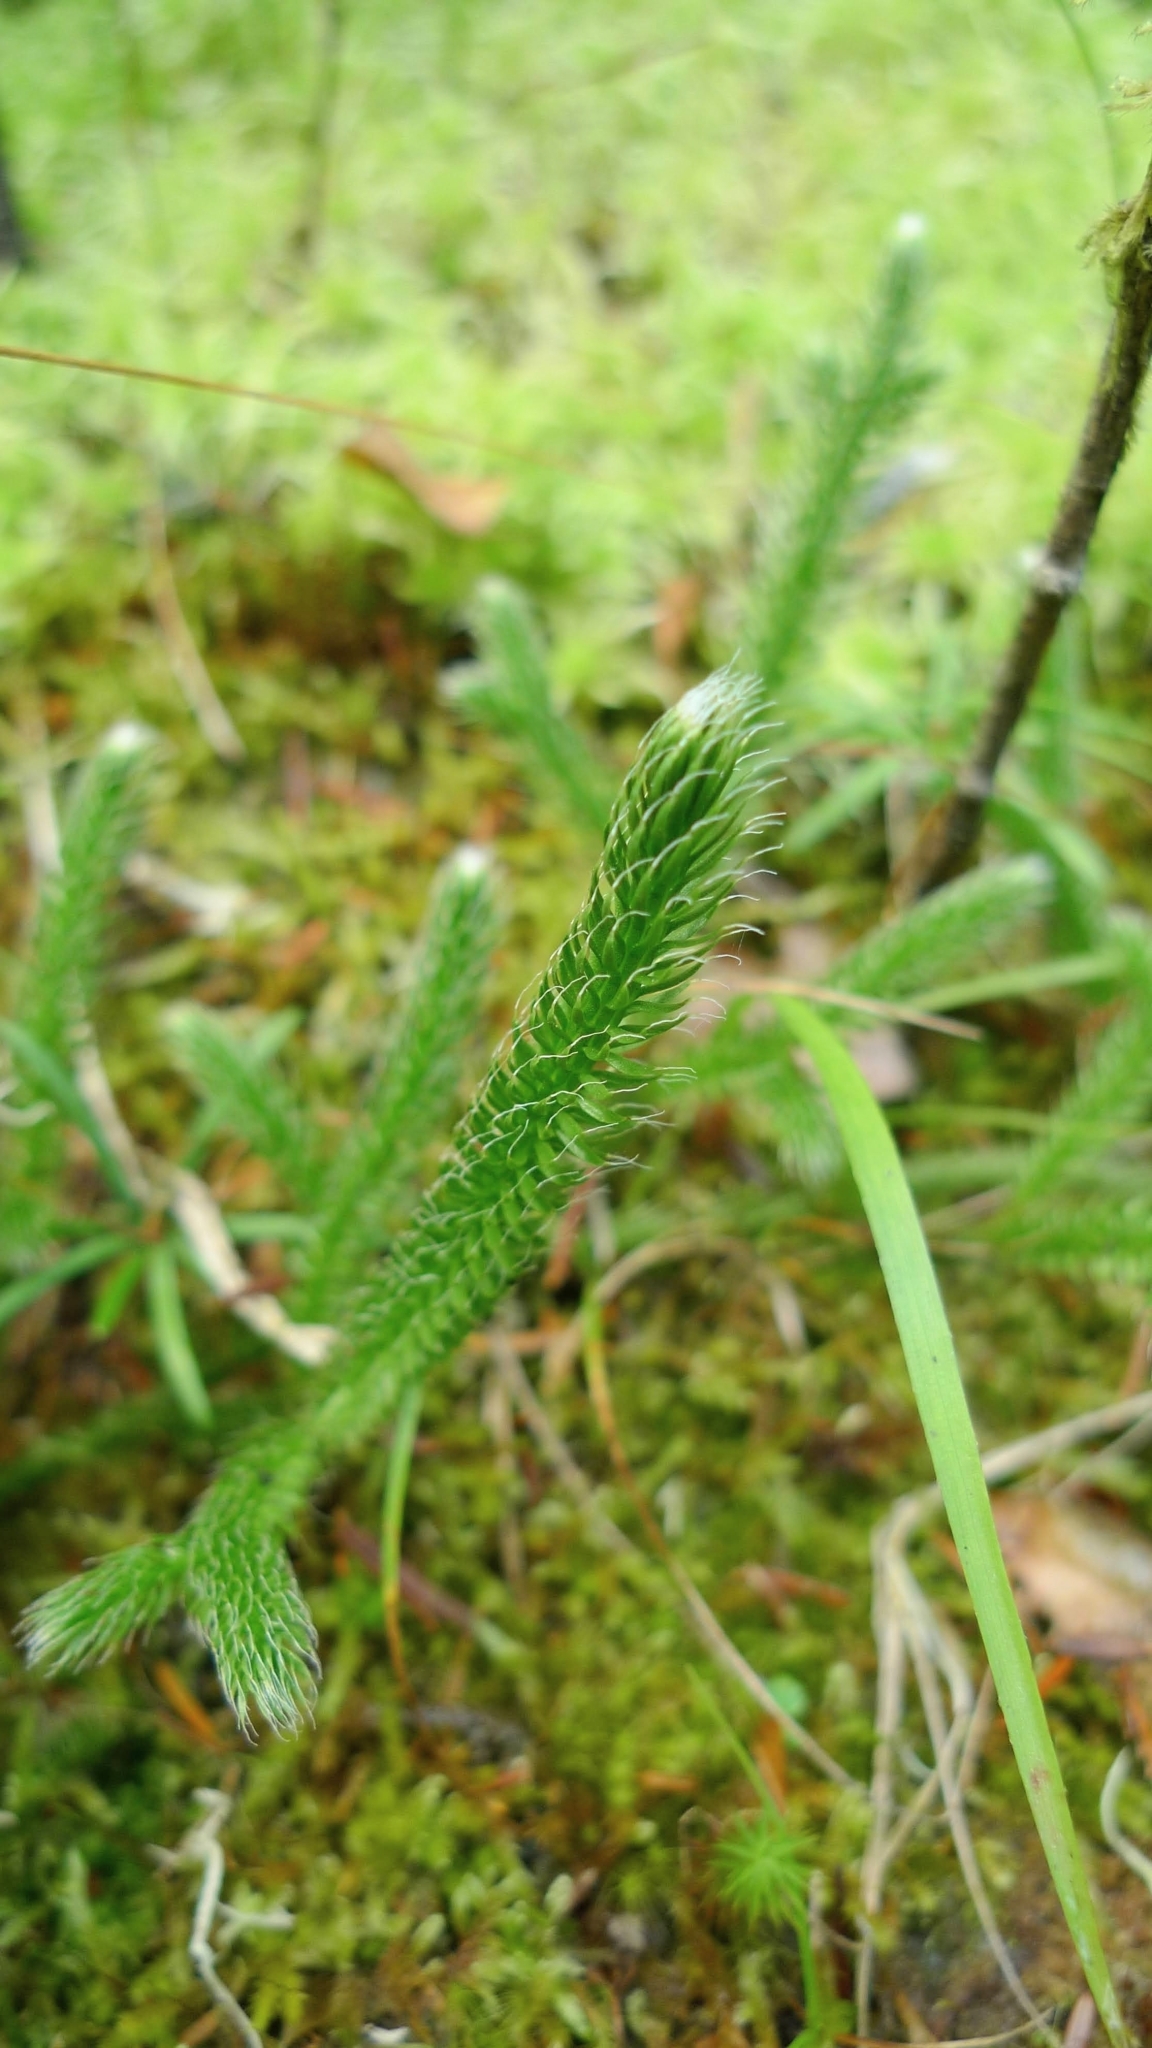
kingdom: Plantae
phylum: Tracheophyta
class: Lycopodiopsida
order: Lycopodiales
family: Lycopodiaceae
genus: Lycopodium
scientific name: Lycopodium clavatum
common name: Stag's-horn clubmoss
